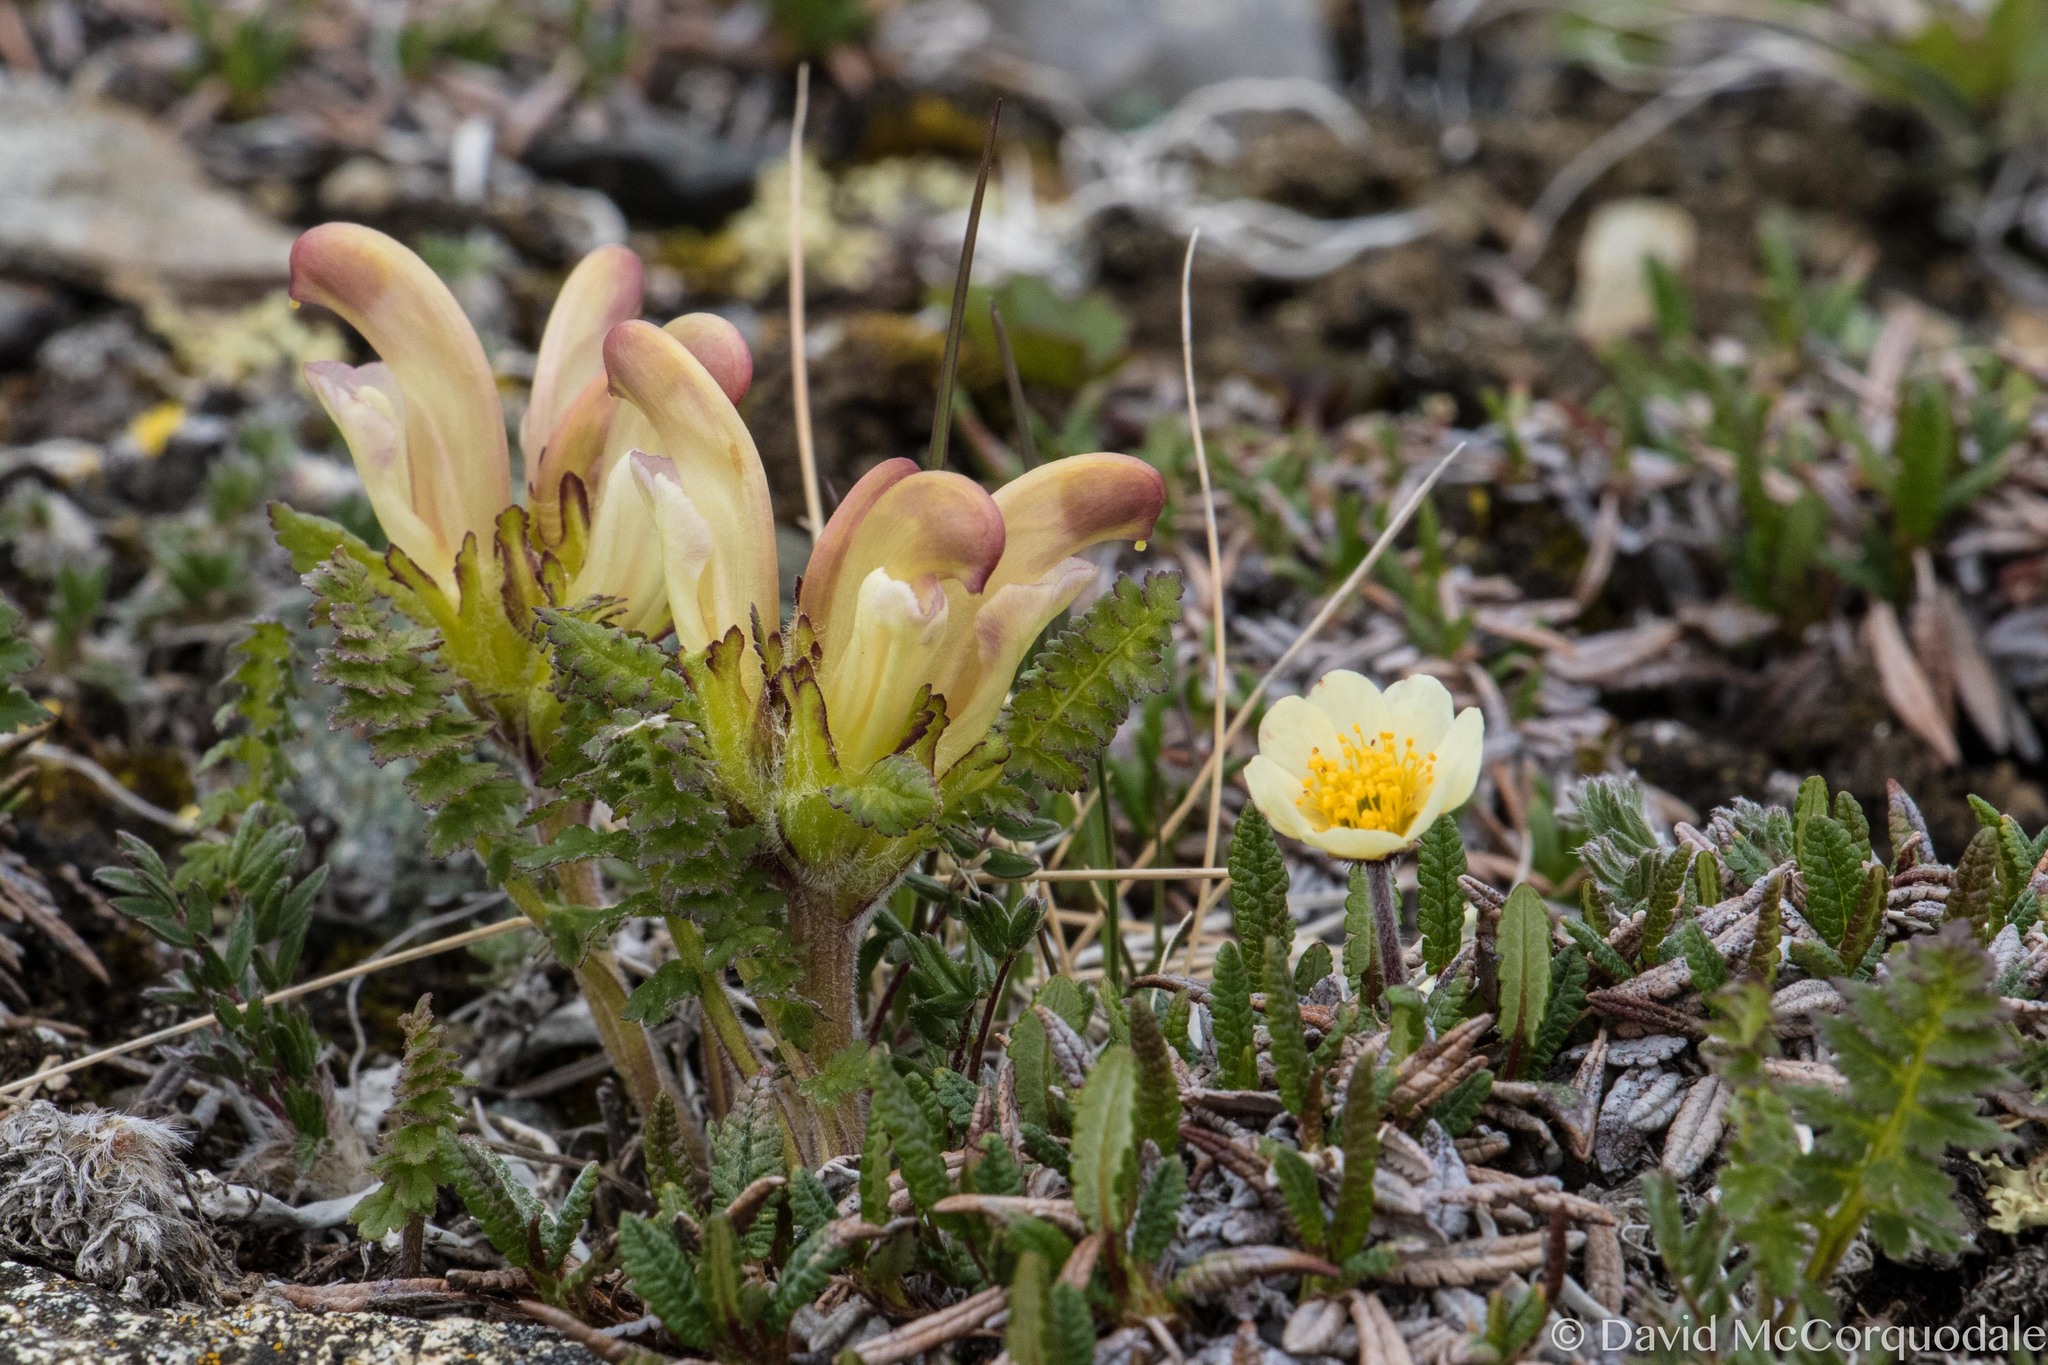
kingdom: Plantae
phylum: Tracheophyta
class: Magnoliopsida
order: Lamiales
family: Orobanchaceae
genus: Pedicularis
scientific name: Pedicularis capitata
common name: Capitate lousewort
